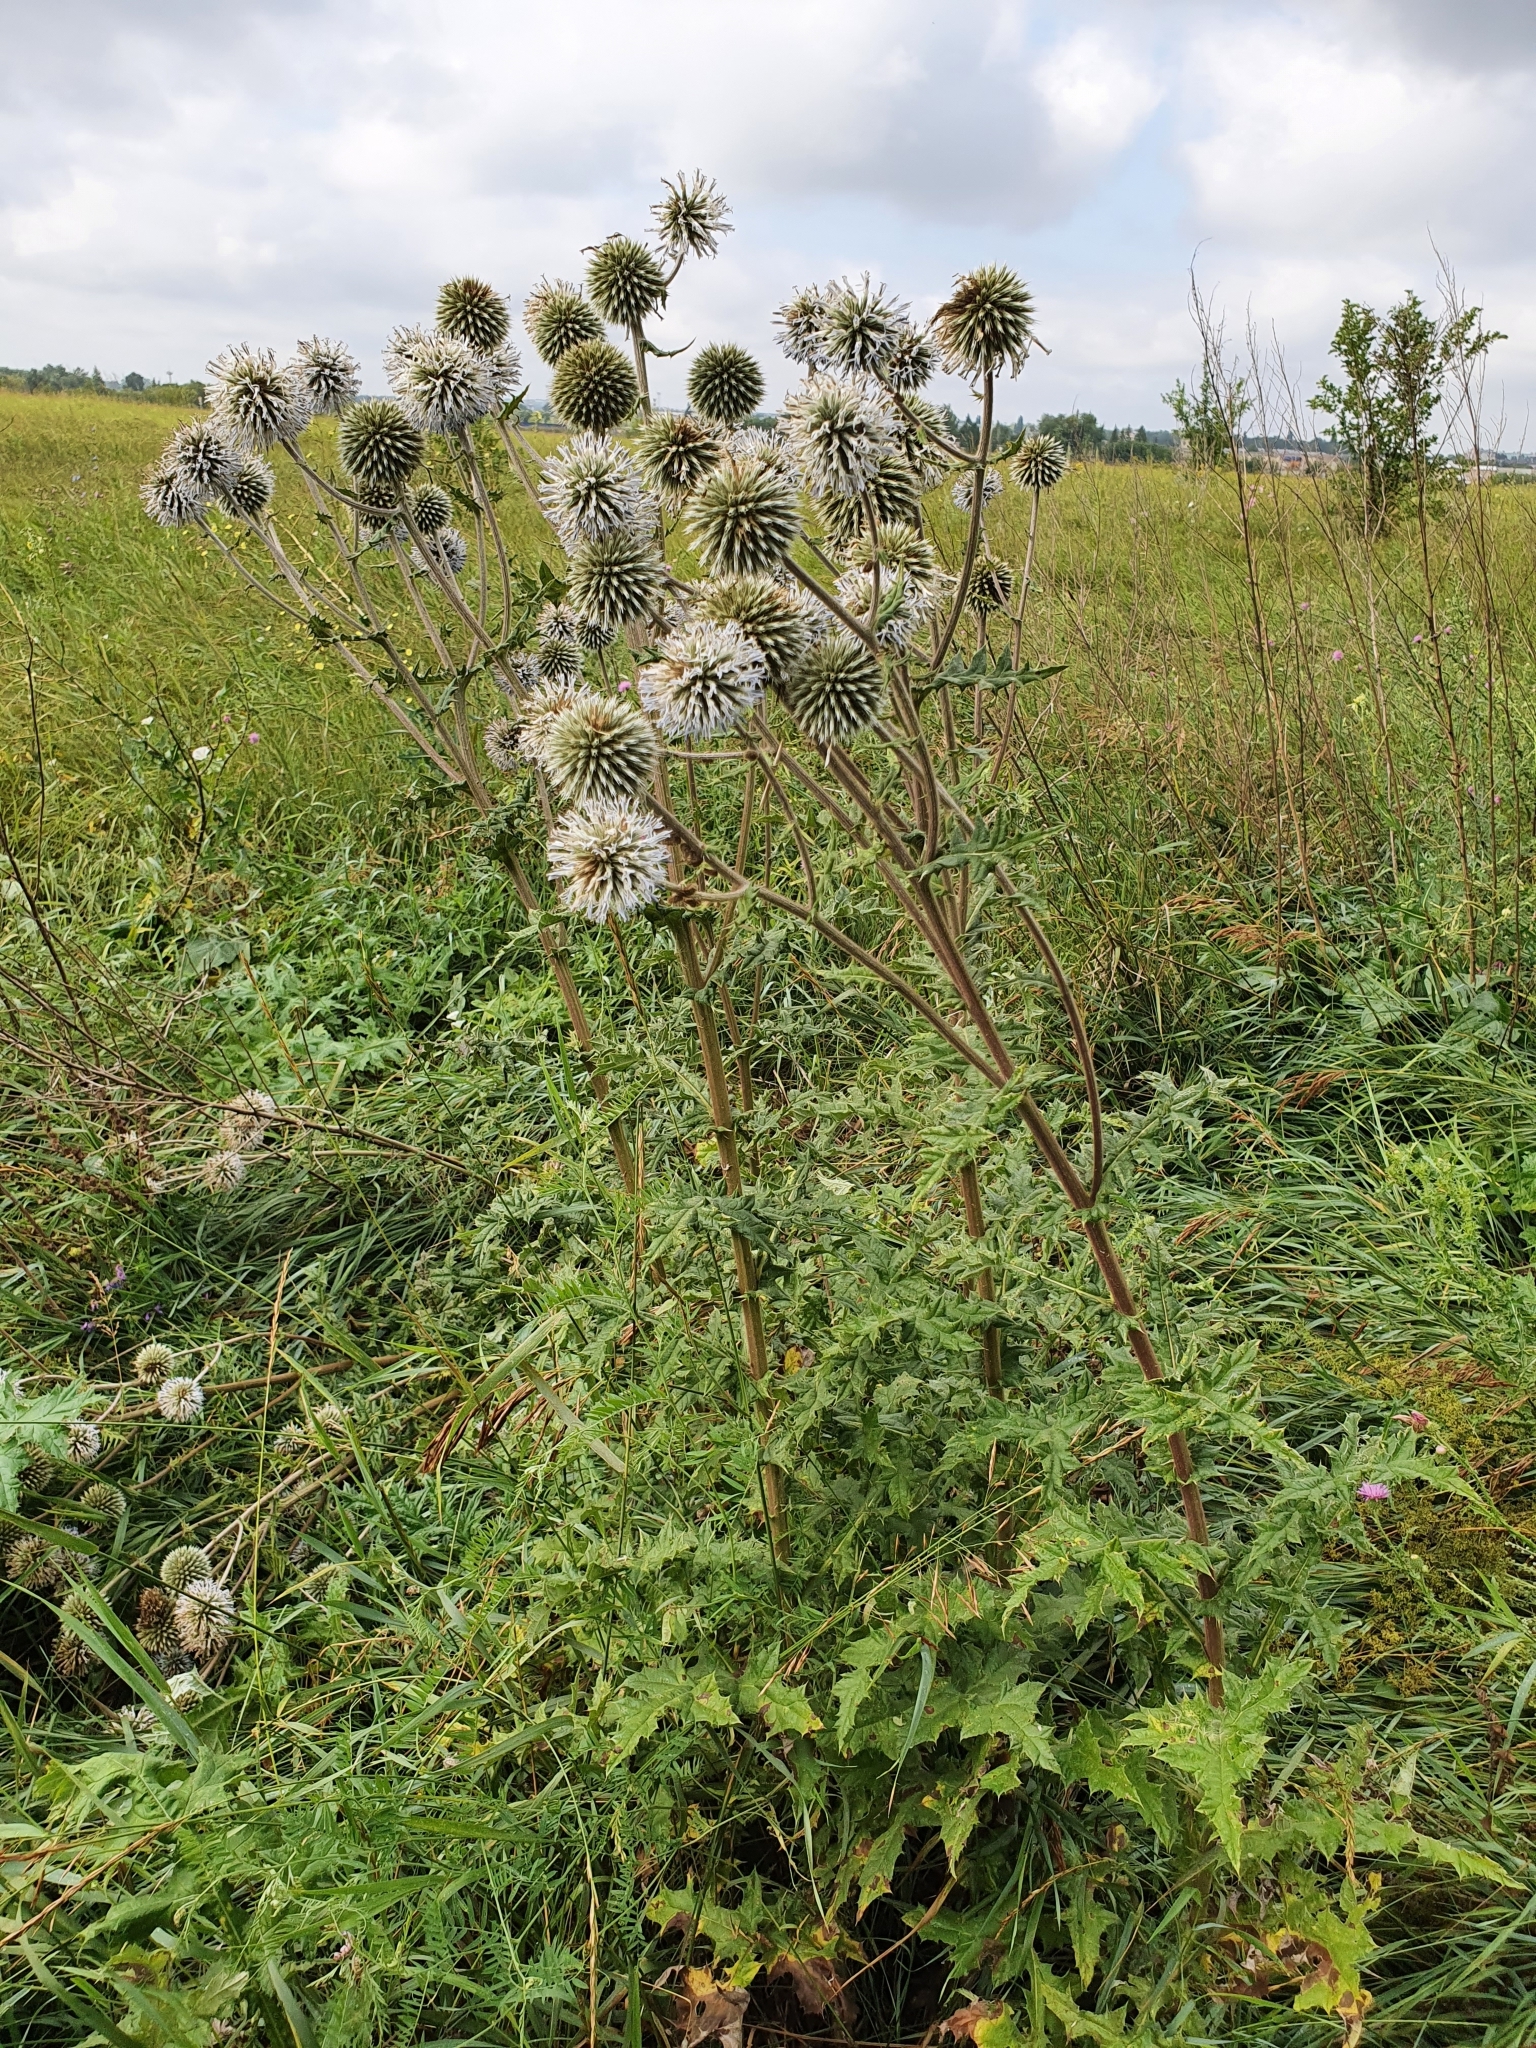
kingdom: Plantae
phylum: Tracheophyta
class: Magnoliopsida
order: Asterales
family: Asteraceae
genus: Echinops
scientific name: Echinops sphaerocephalus
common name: Glandular globe-thistle
